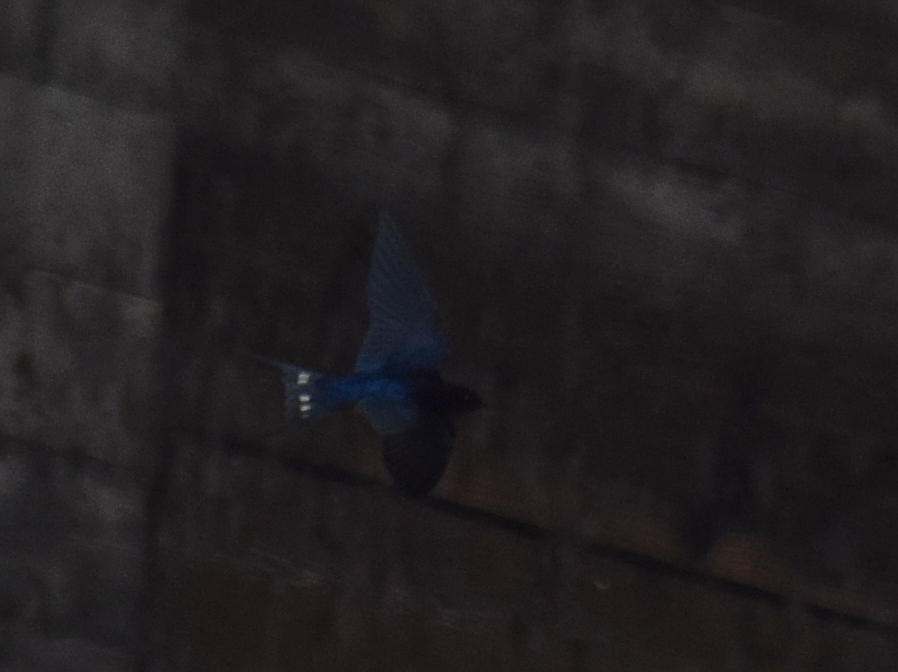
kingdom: Animalia
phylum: Chordata
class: Aves
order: Passeriformes
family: Hirundinidae
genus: Hirundo
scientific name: Hirundo rustica
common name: Barn swallow
